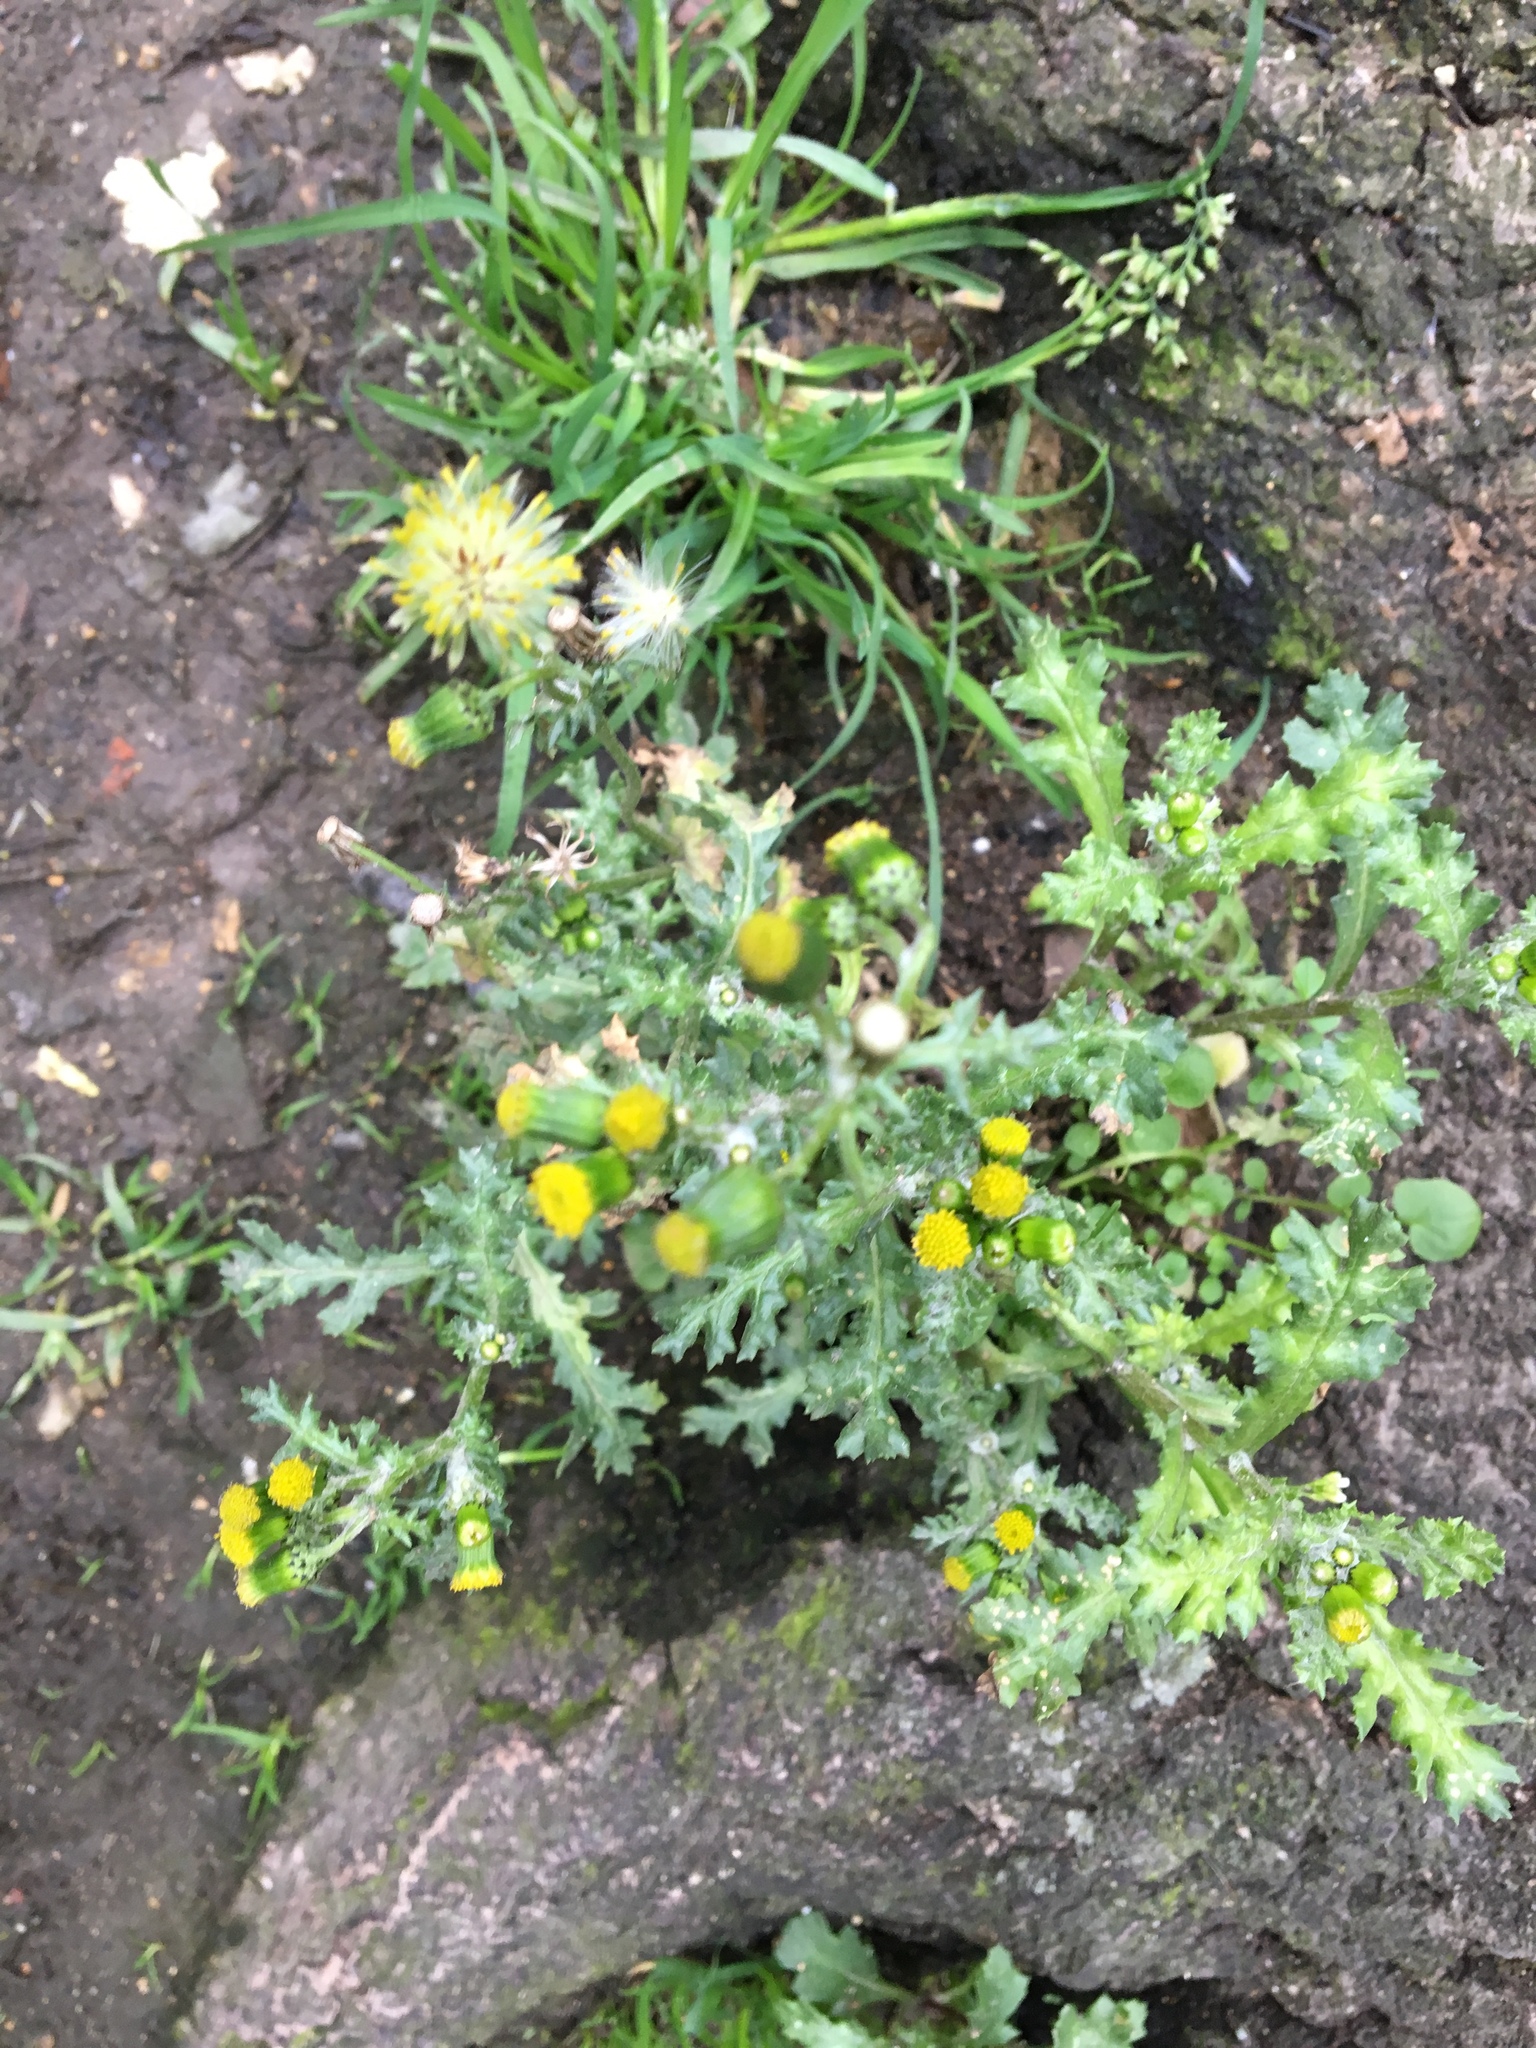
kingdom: Plantae
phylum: Tracheophyta
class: Magnoliopsida
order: Asterales
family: Asteraceae
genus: Senecio
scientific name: Senecio vulgaris
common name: Old-man-in-the-spring
